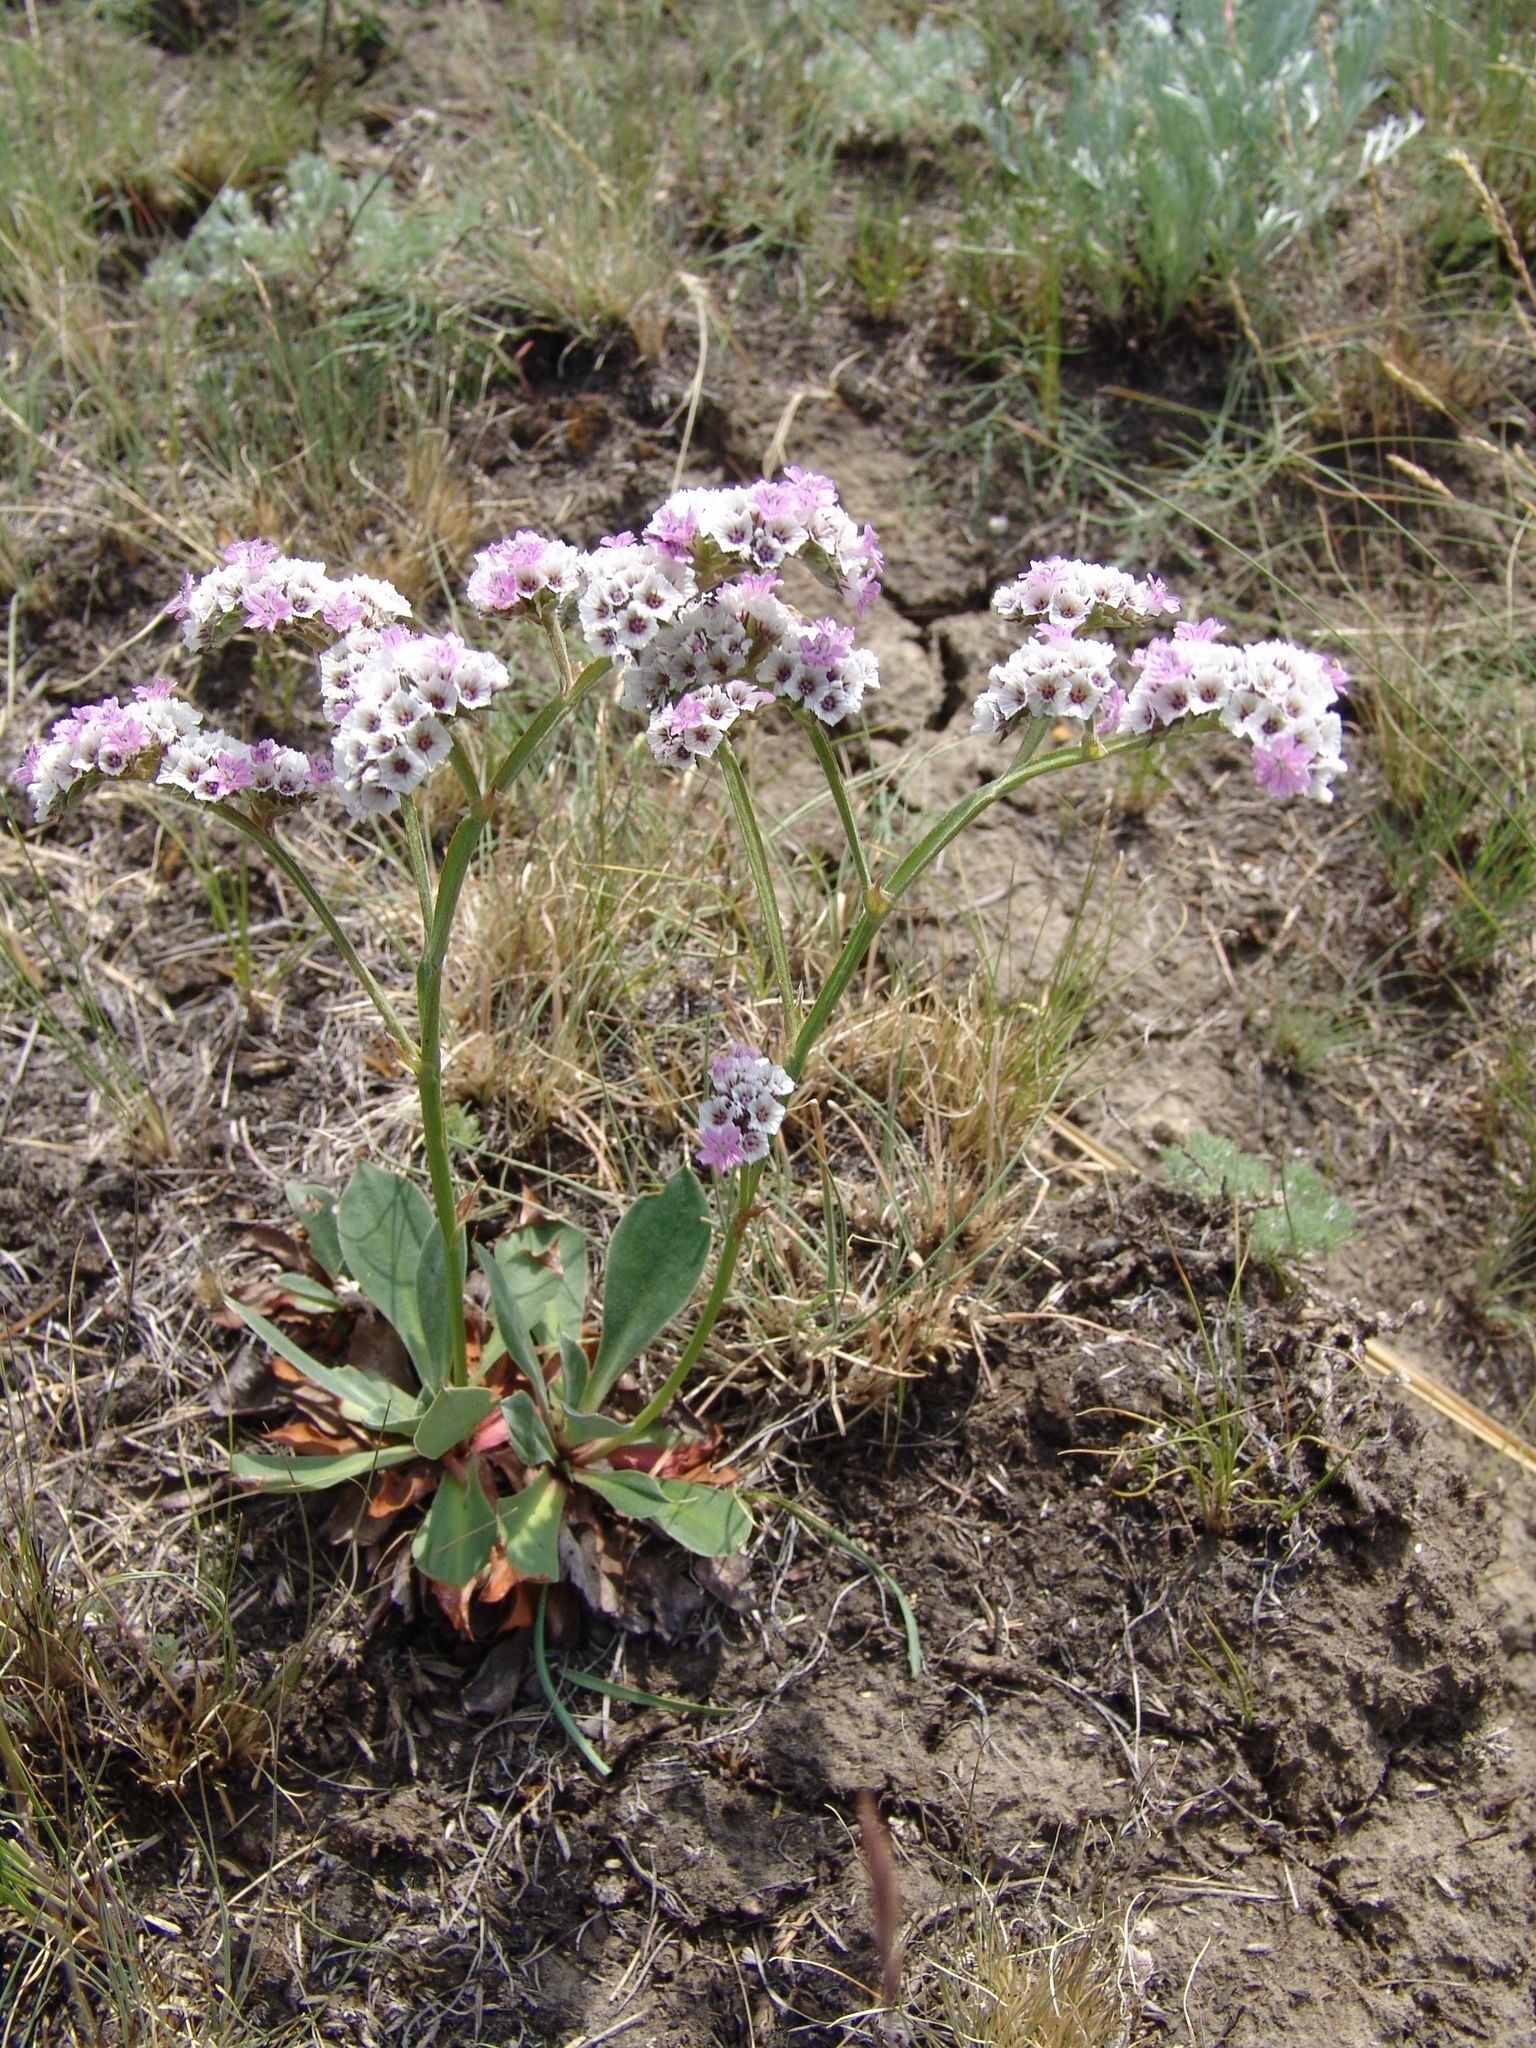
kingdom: Plantae
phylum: Tracheophyta
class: Magnoliopsida
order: Caryophyllales
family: Plumbaginaceae
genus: Goniolimon
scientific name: Goniolimon speciosum
